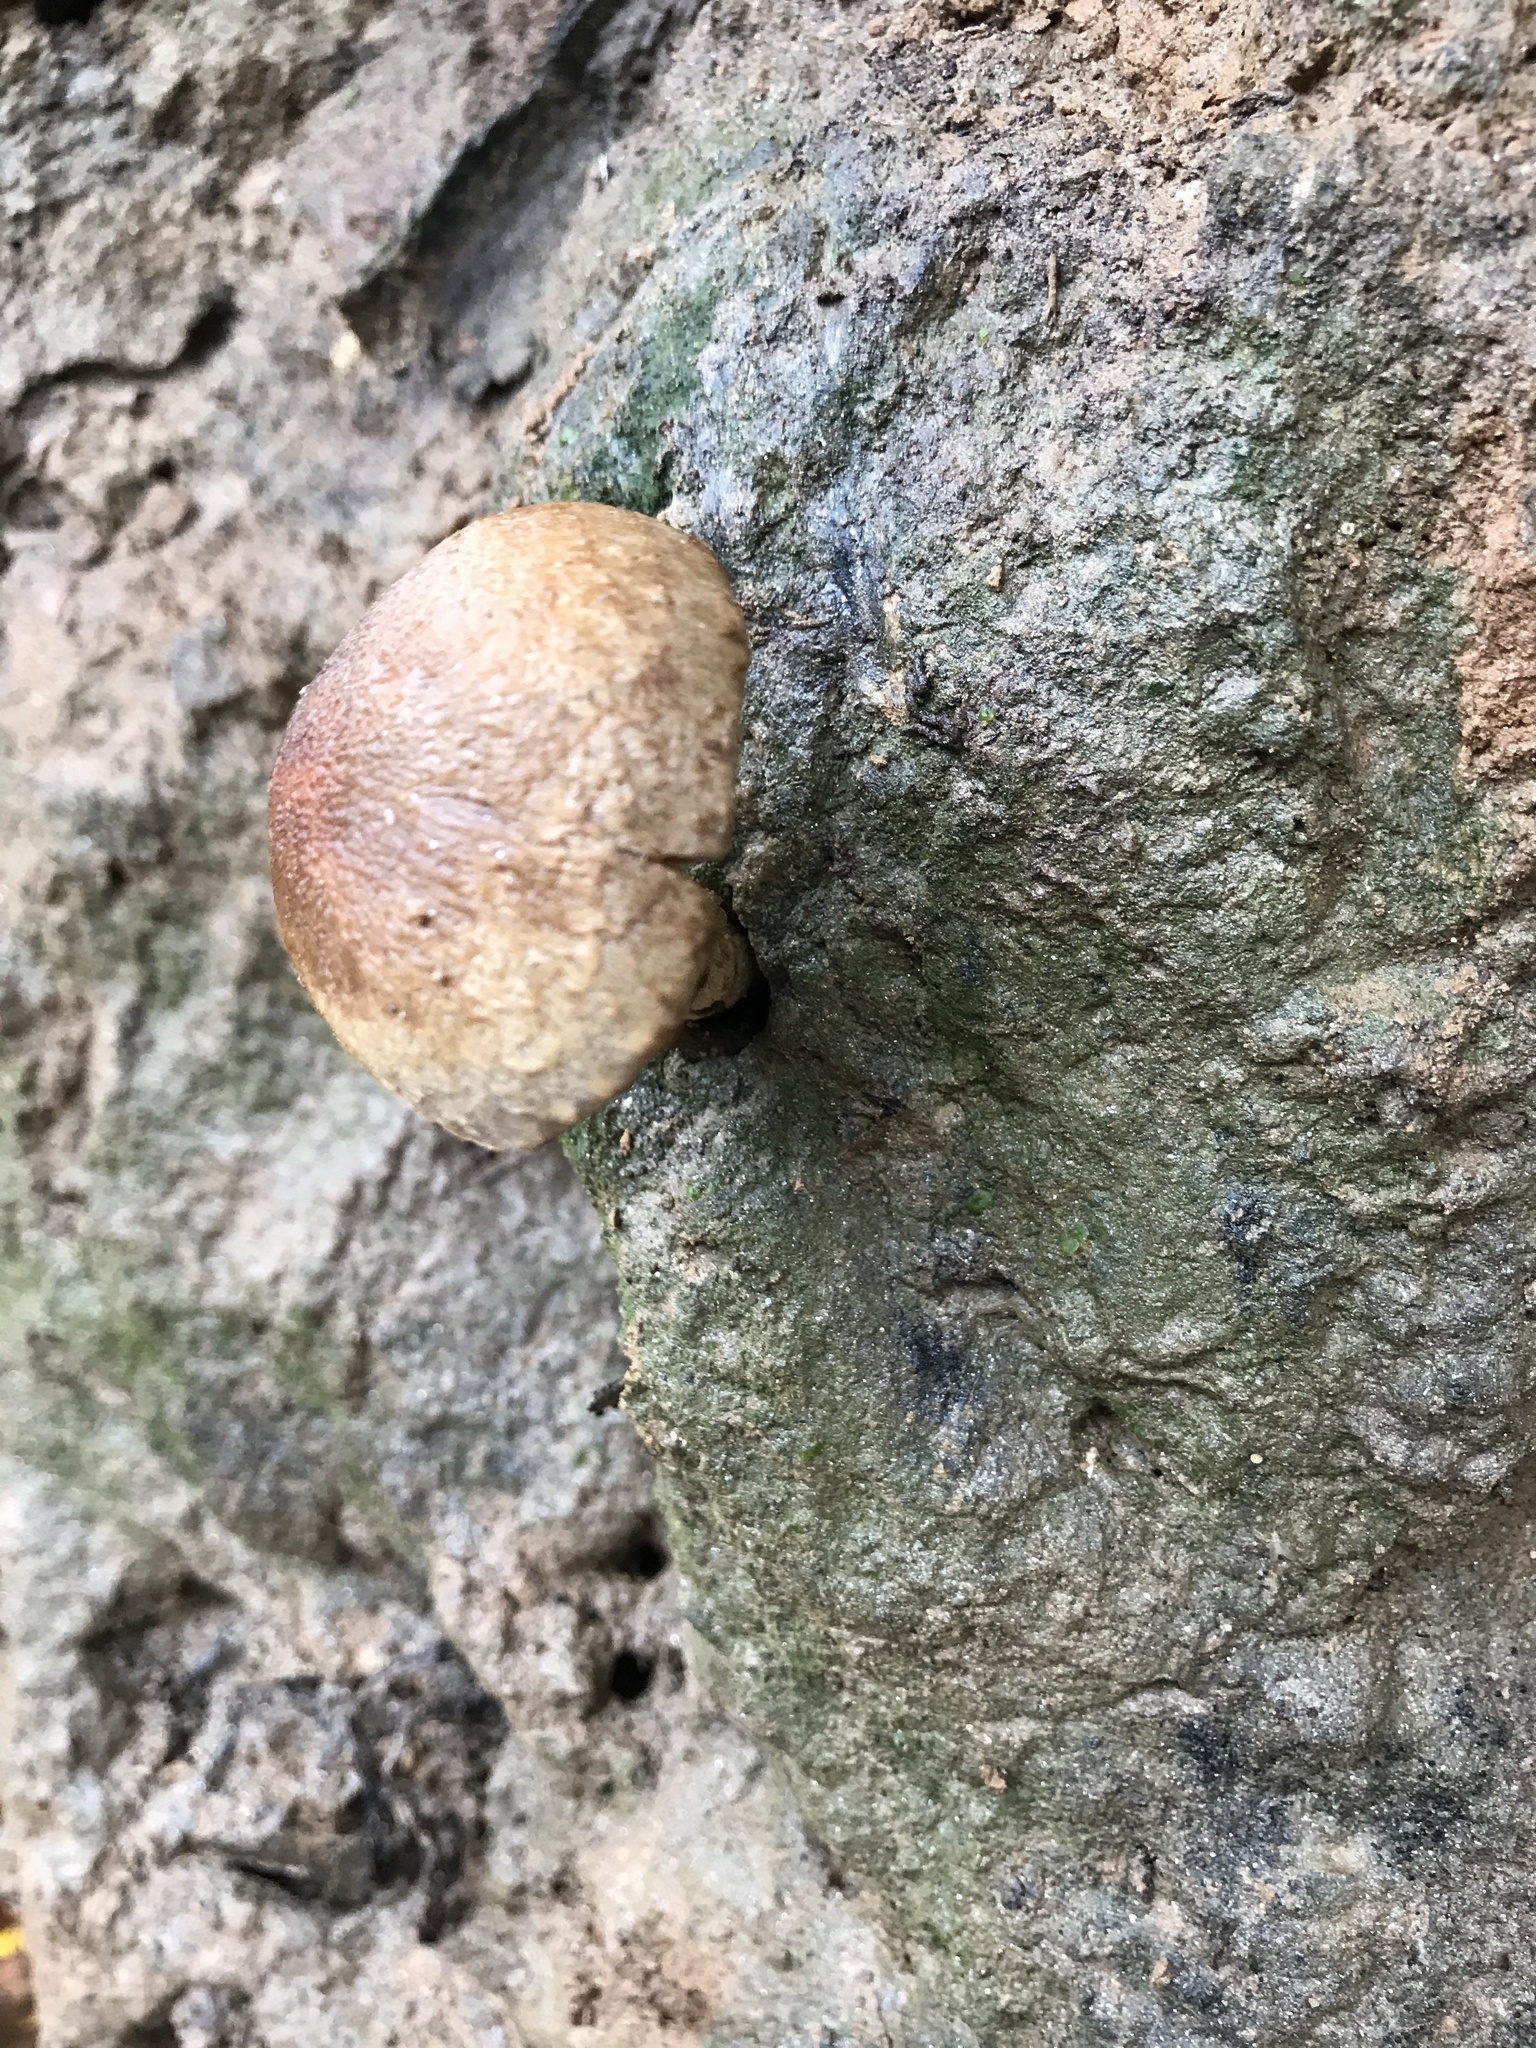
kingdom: Fungi
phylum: Basidiomycota
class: Agaricomycetes
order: Agaricales
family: Psathyrellaceae
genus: Lacrymaria
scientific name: Lacrymaria lacrymabunda
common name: Weeping widow
